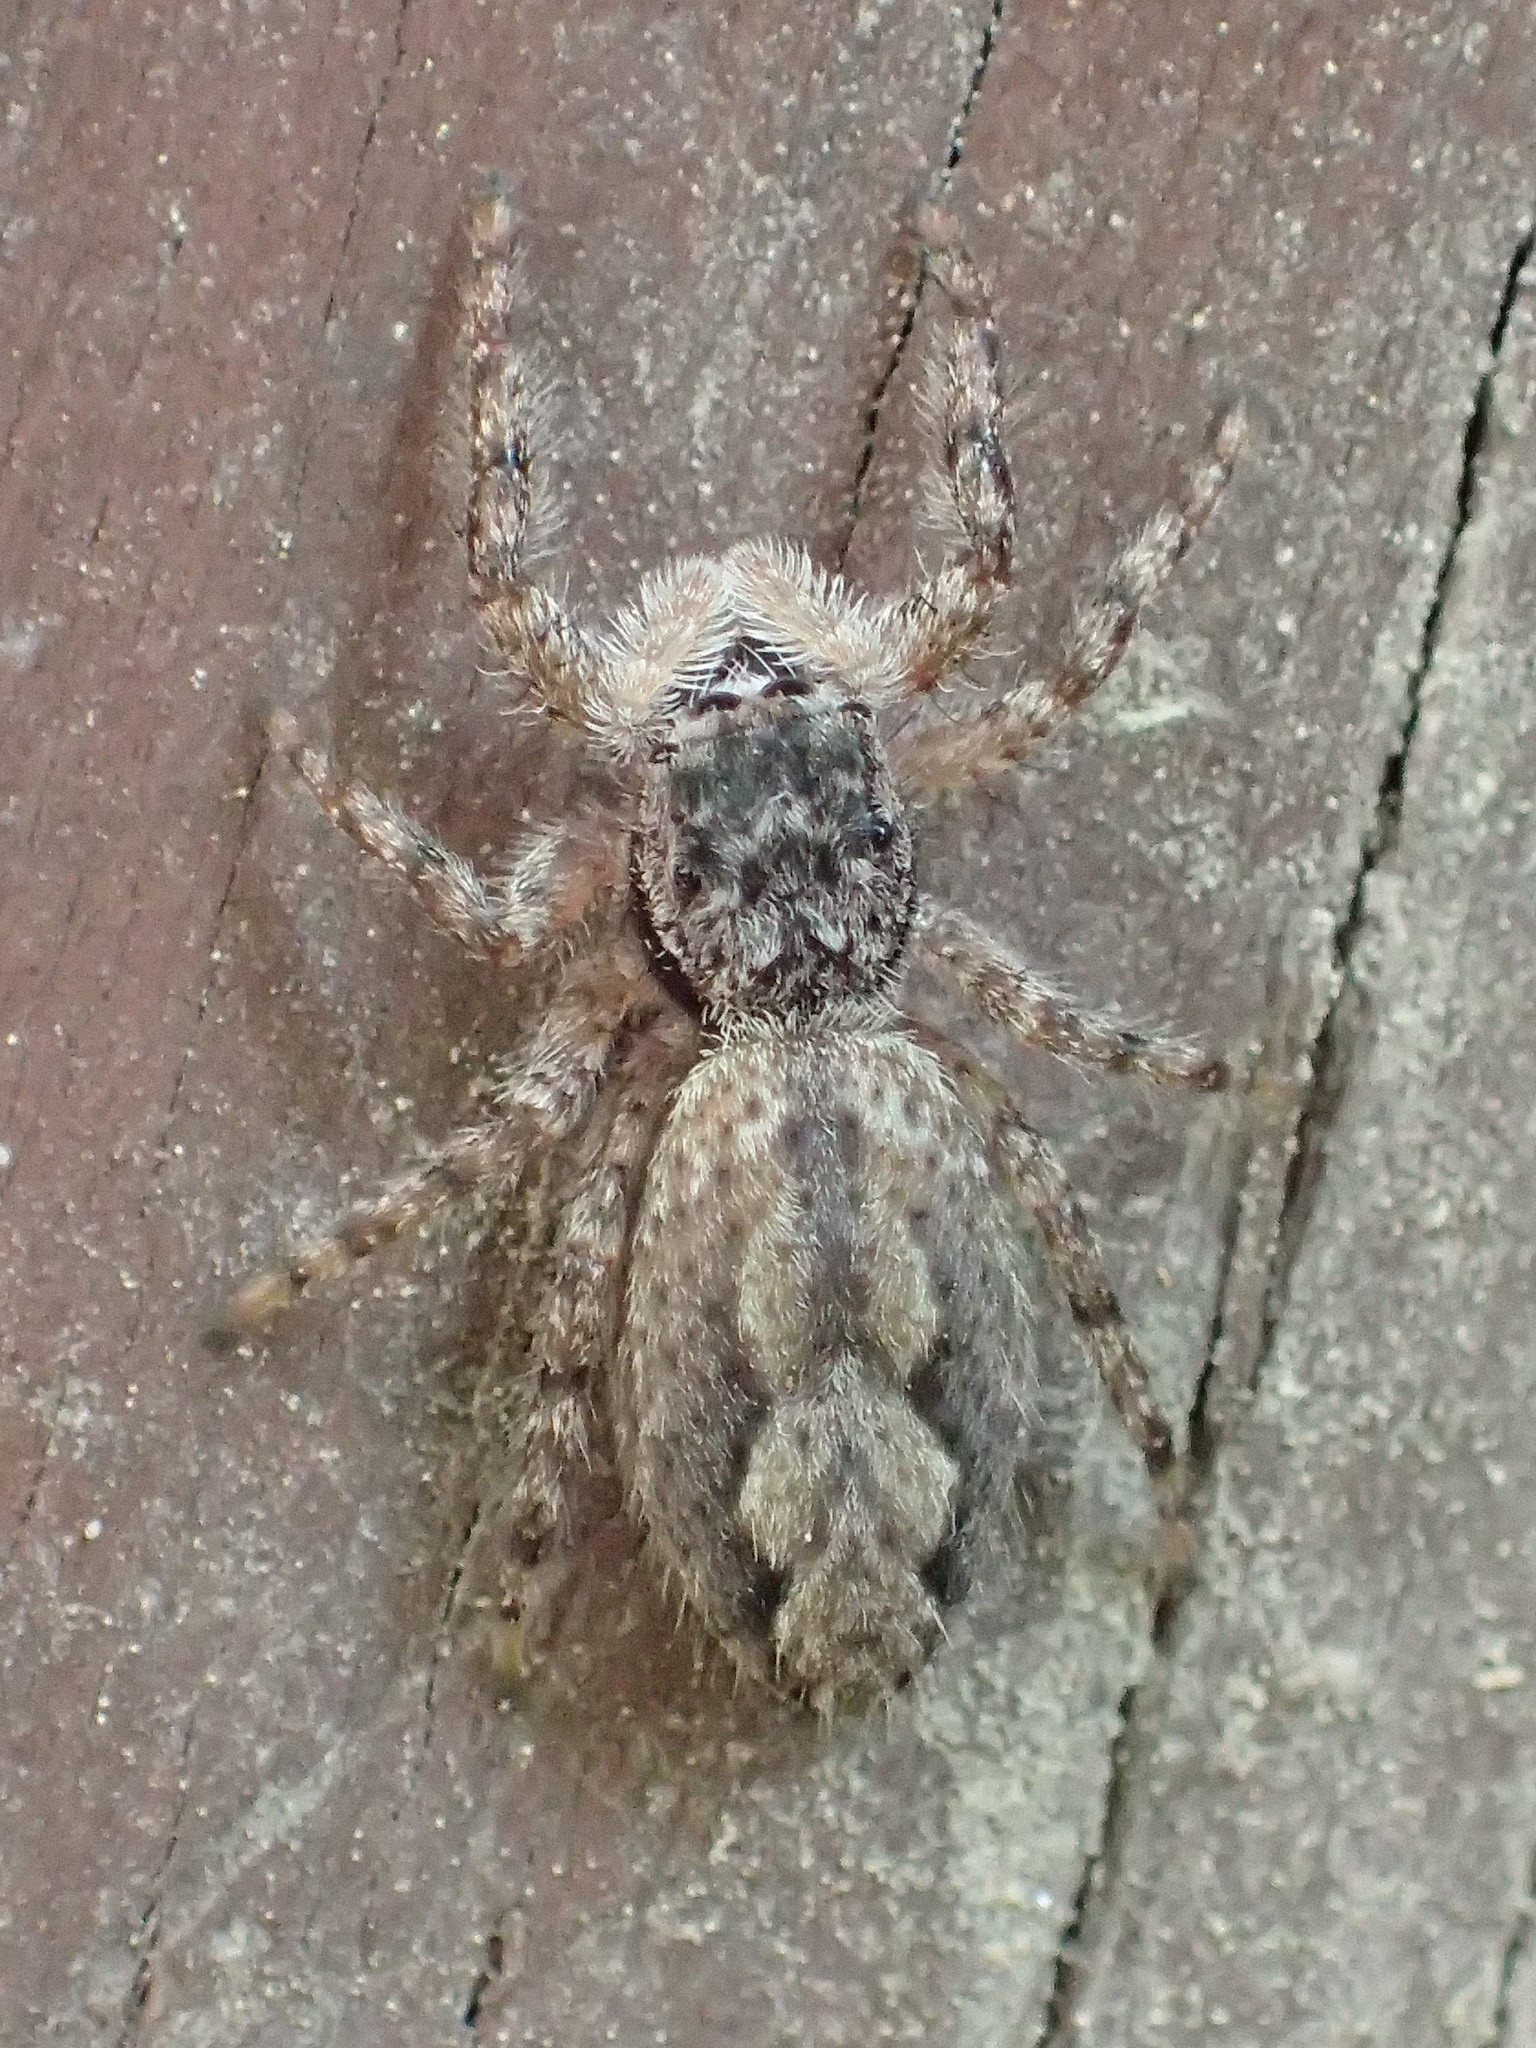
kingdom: Animalia
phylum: Arthropoda
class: Arachnida
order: Araneae
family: Salticidae
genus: Platycryptus
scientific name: Platycryptus undatus
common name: Tan jumping spider
